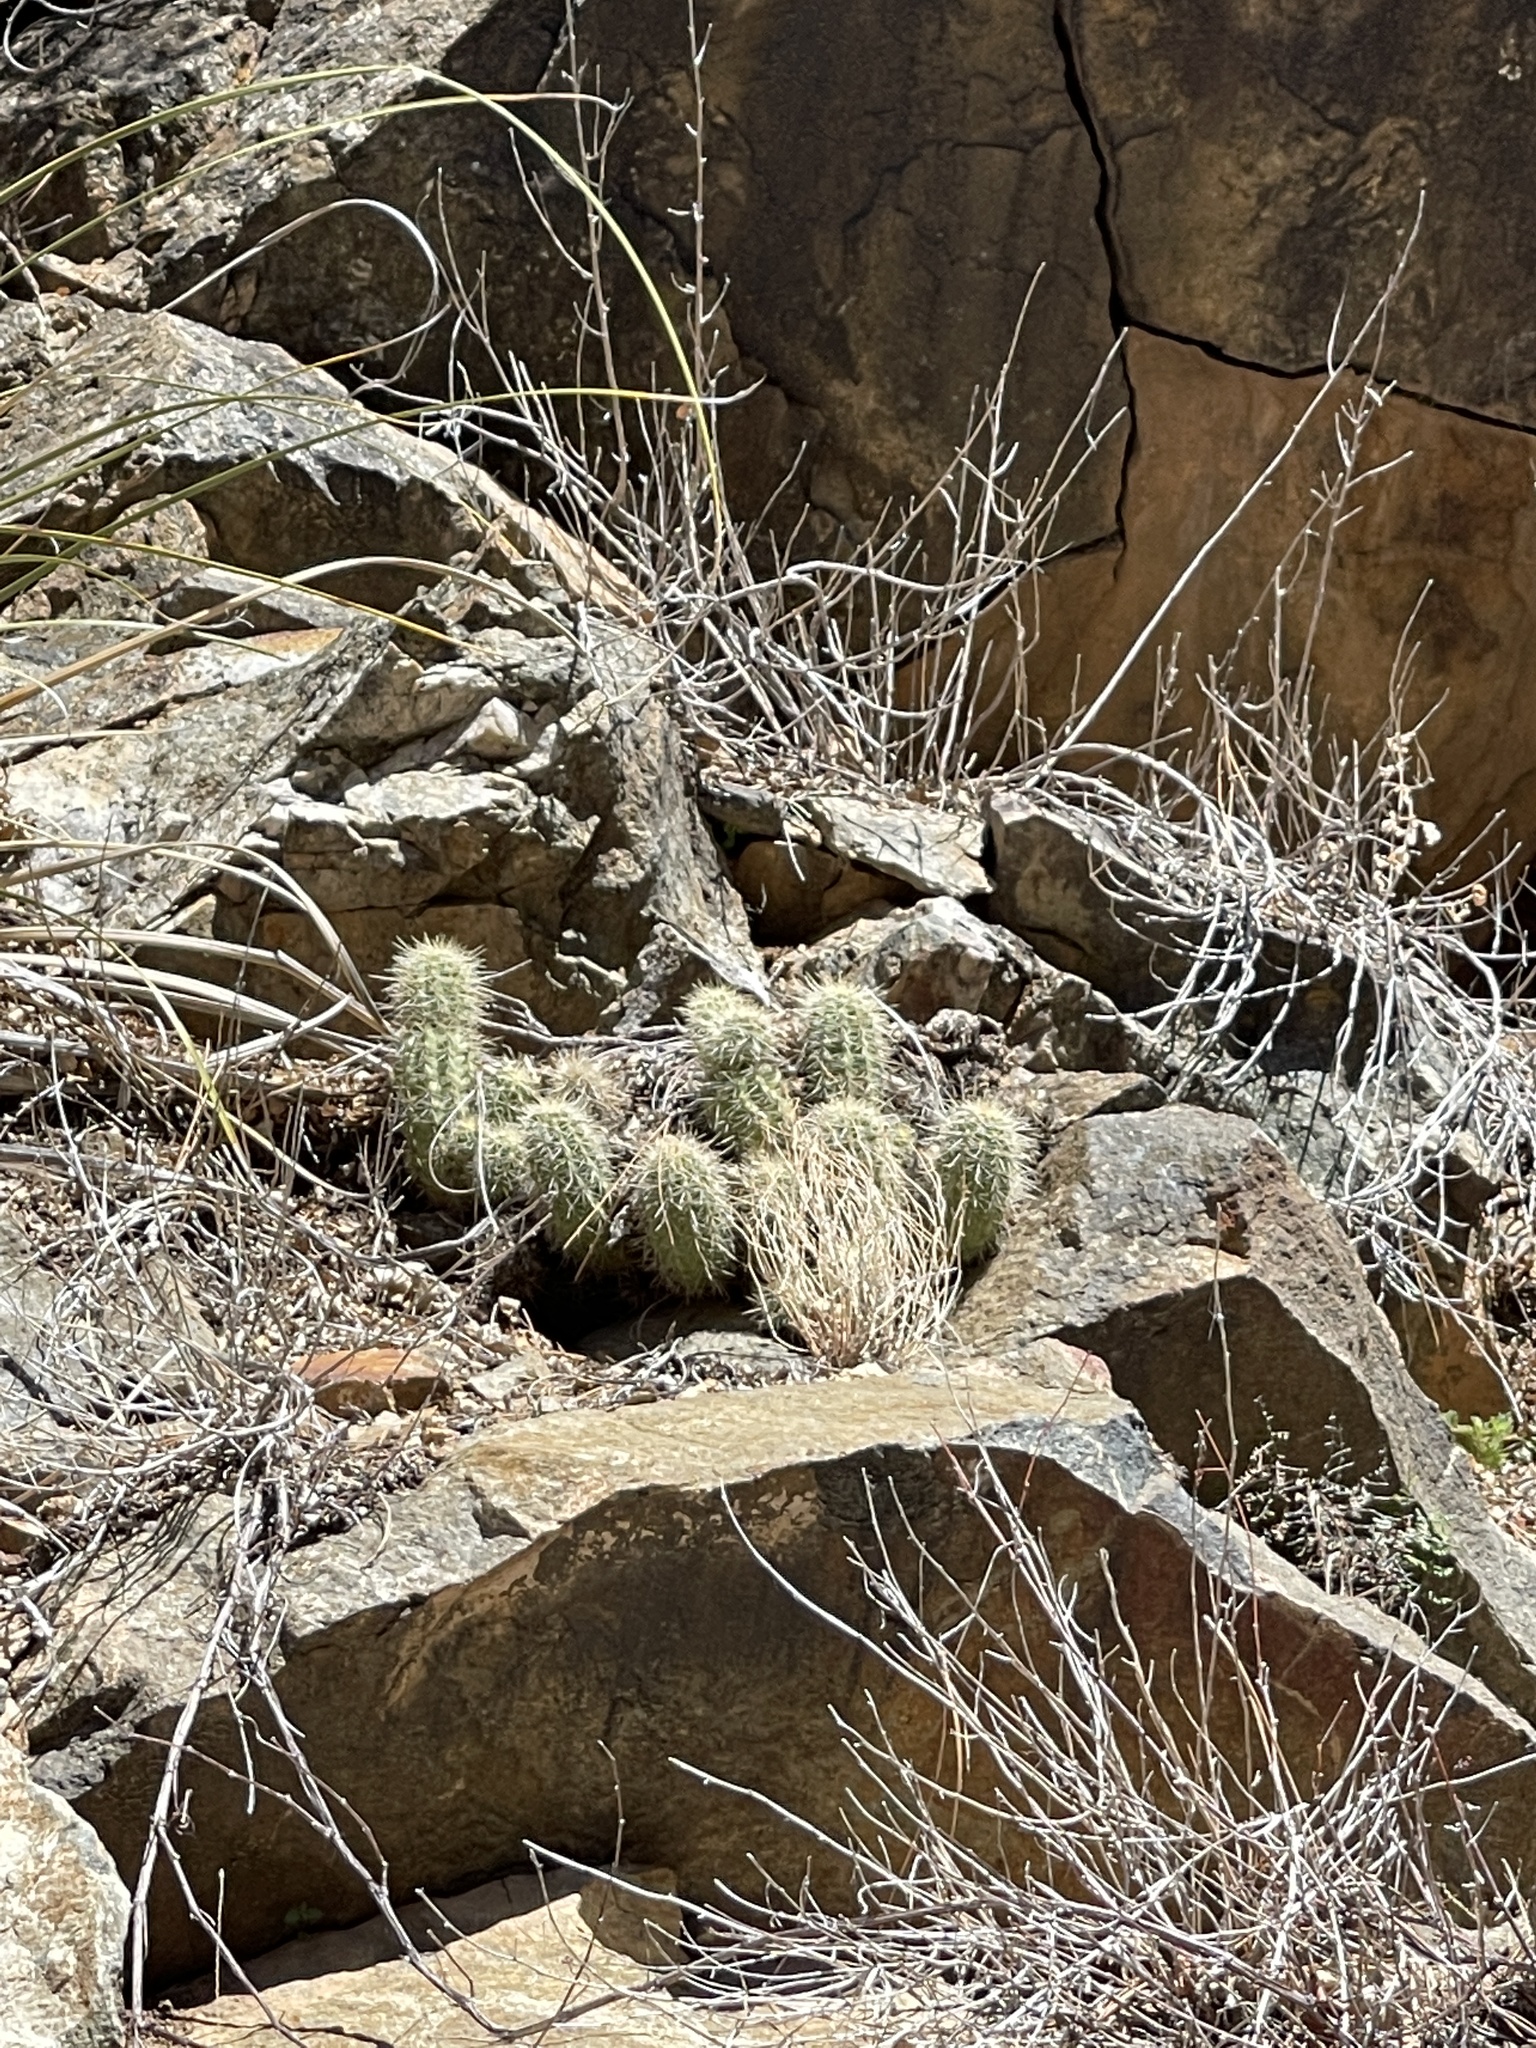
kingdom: Plantae
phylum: Tracheophyta
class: Magnoliopsida
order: Caryophyllales
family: Cactaceae
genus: Echinocereus
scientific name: Echinocereus bakeri
